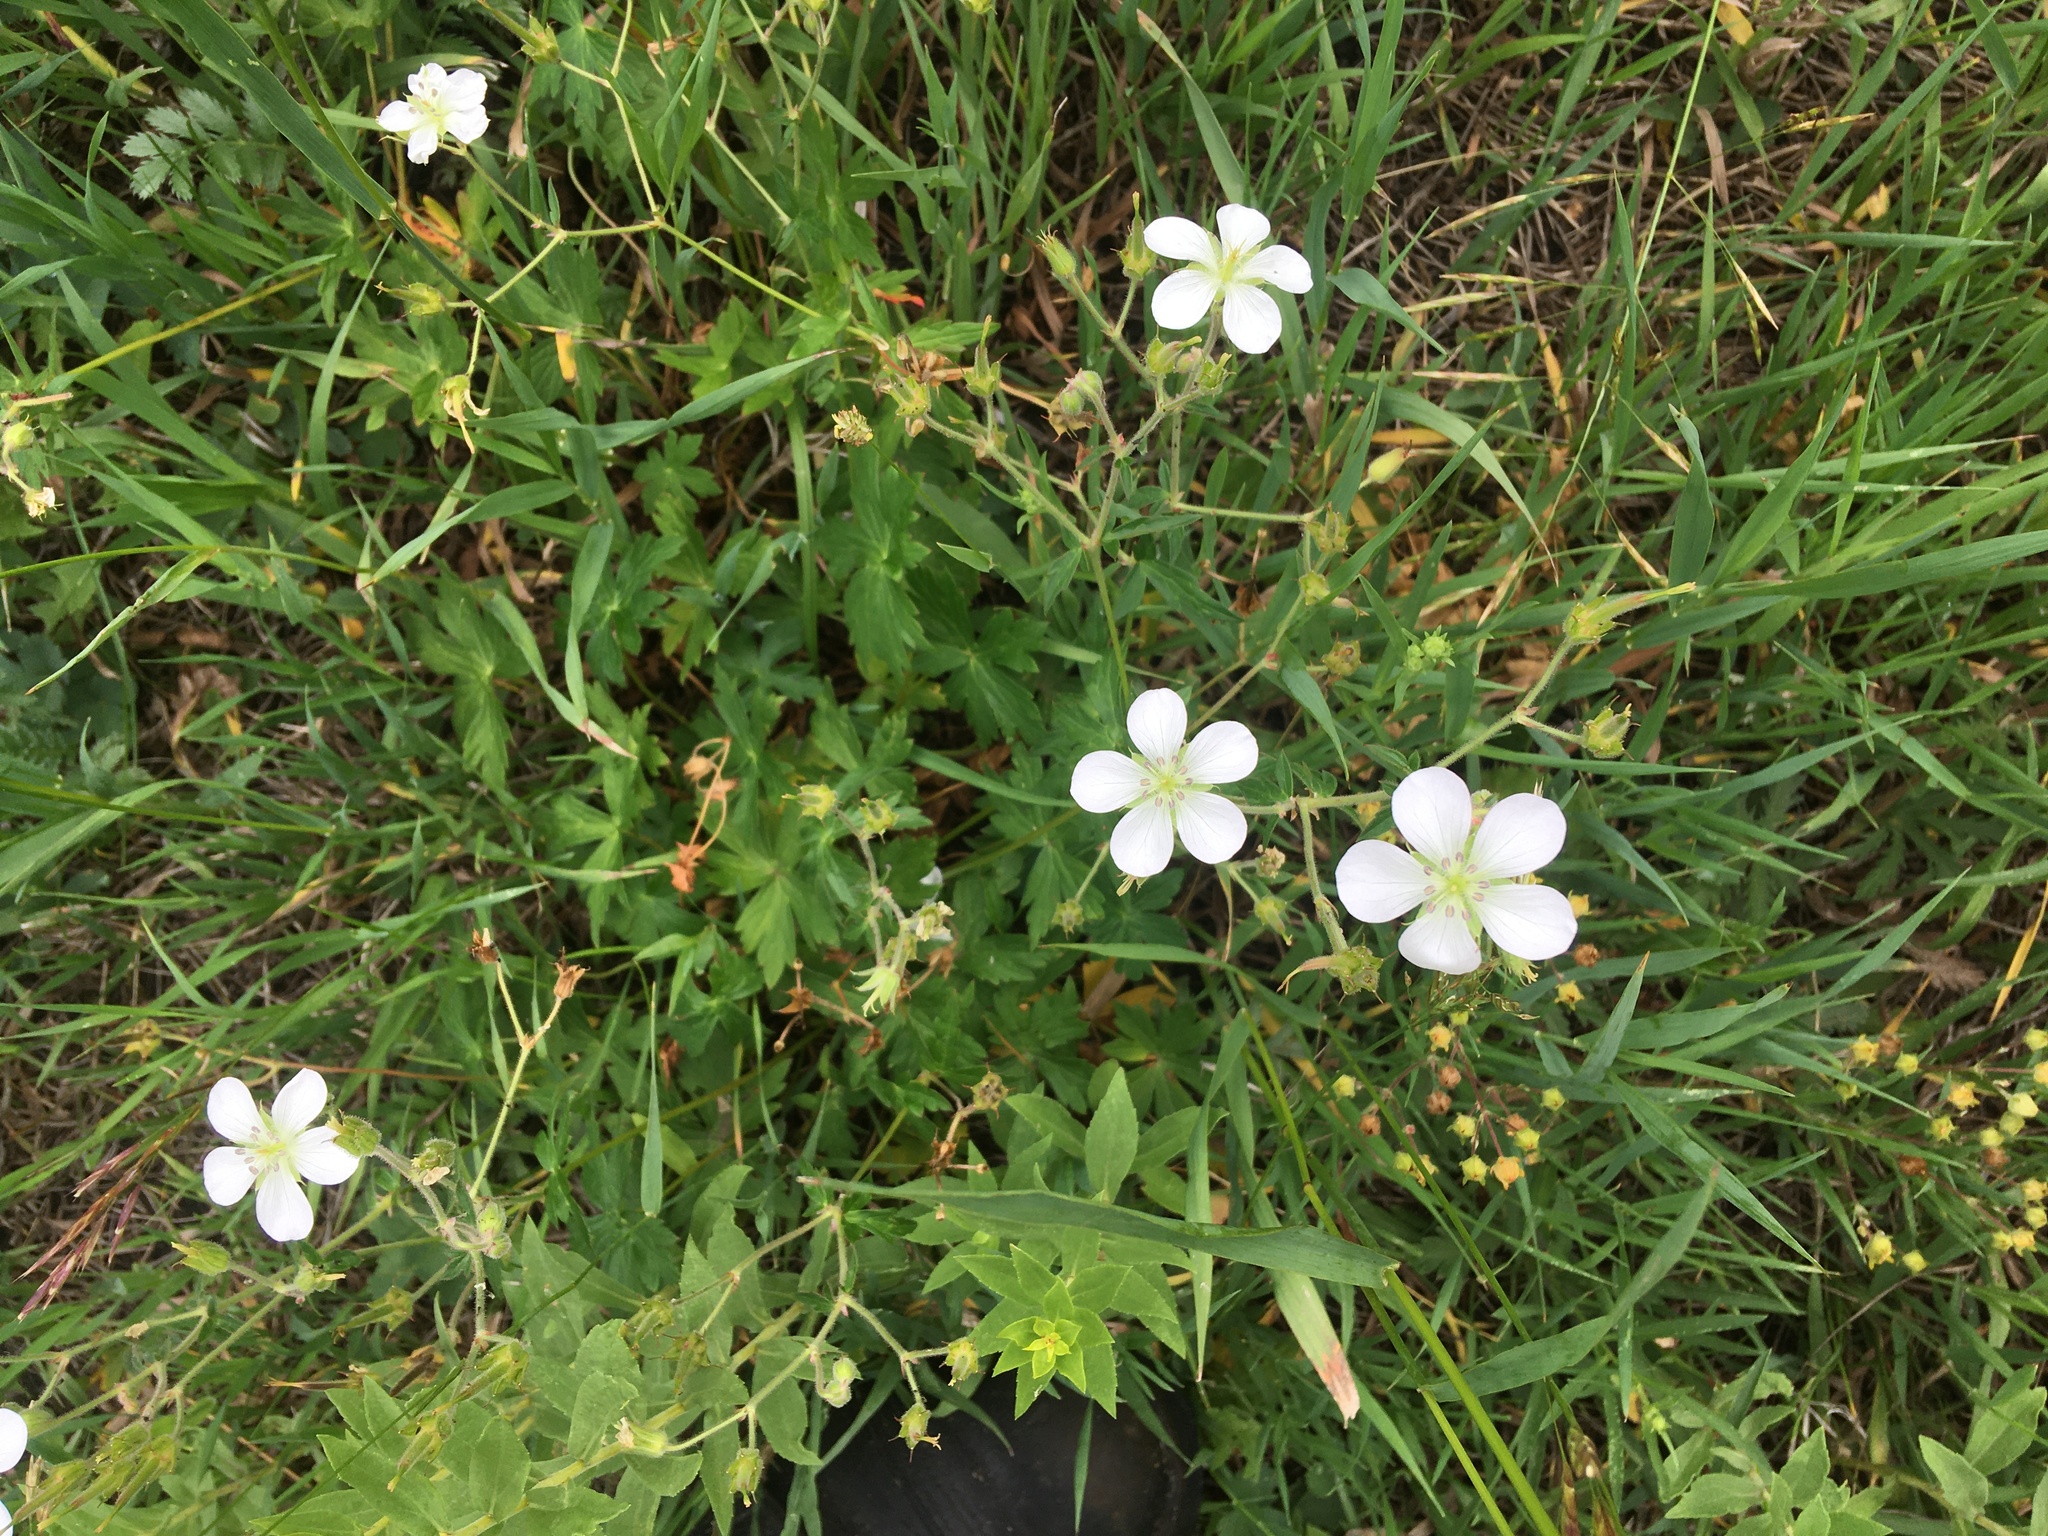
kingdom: Plantae
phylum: Tracheophyta
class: Magnoliopsida
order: Geraniales
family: Geraniaceae
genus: Geranium
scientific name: Geranium richardsonii
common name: Richardson's crane's-bill
